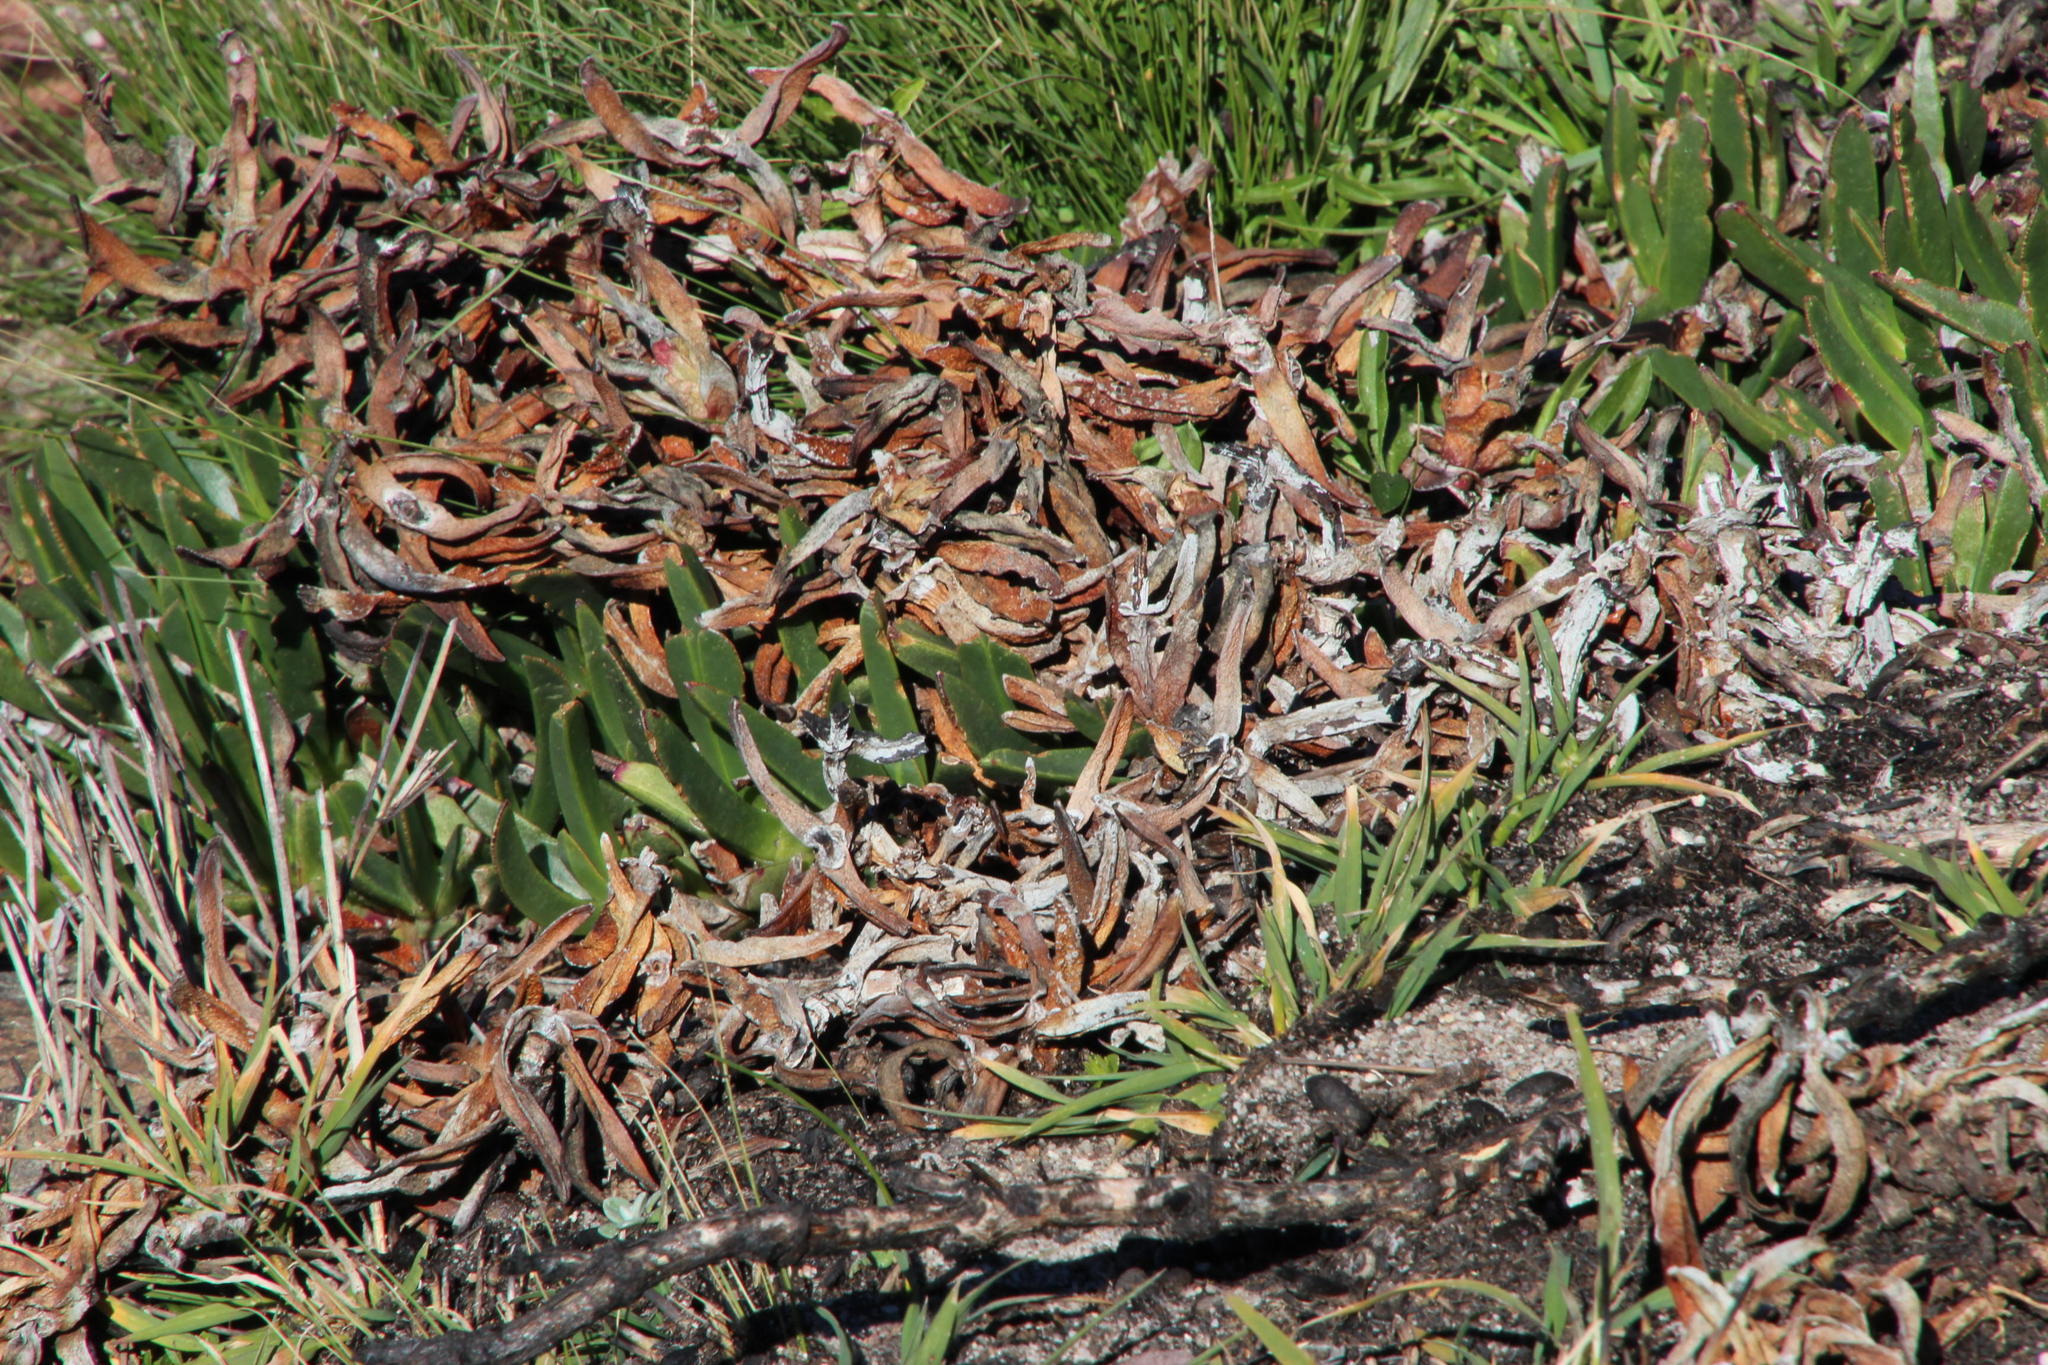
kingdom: Plantae
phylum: Tracheophyta
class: Magnoliopsida
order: Caryophyllales
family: Aizoaceae
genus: Carpobrotus
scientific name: Carpobrotus edulis
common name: Hottentot-fig
